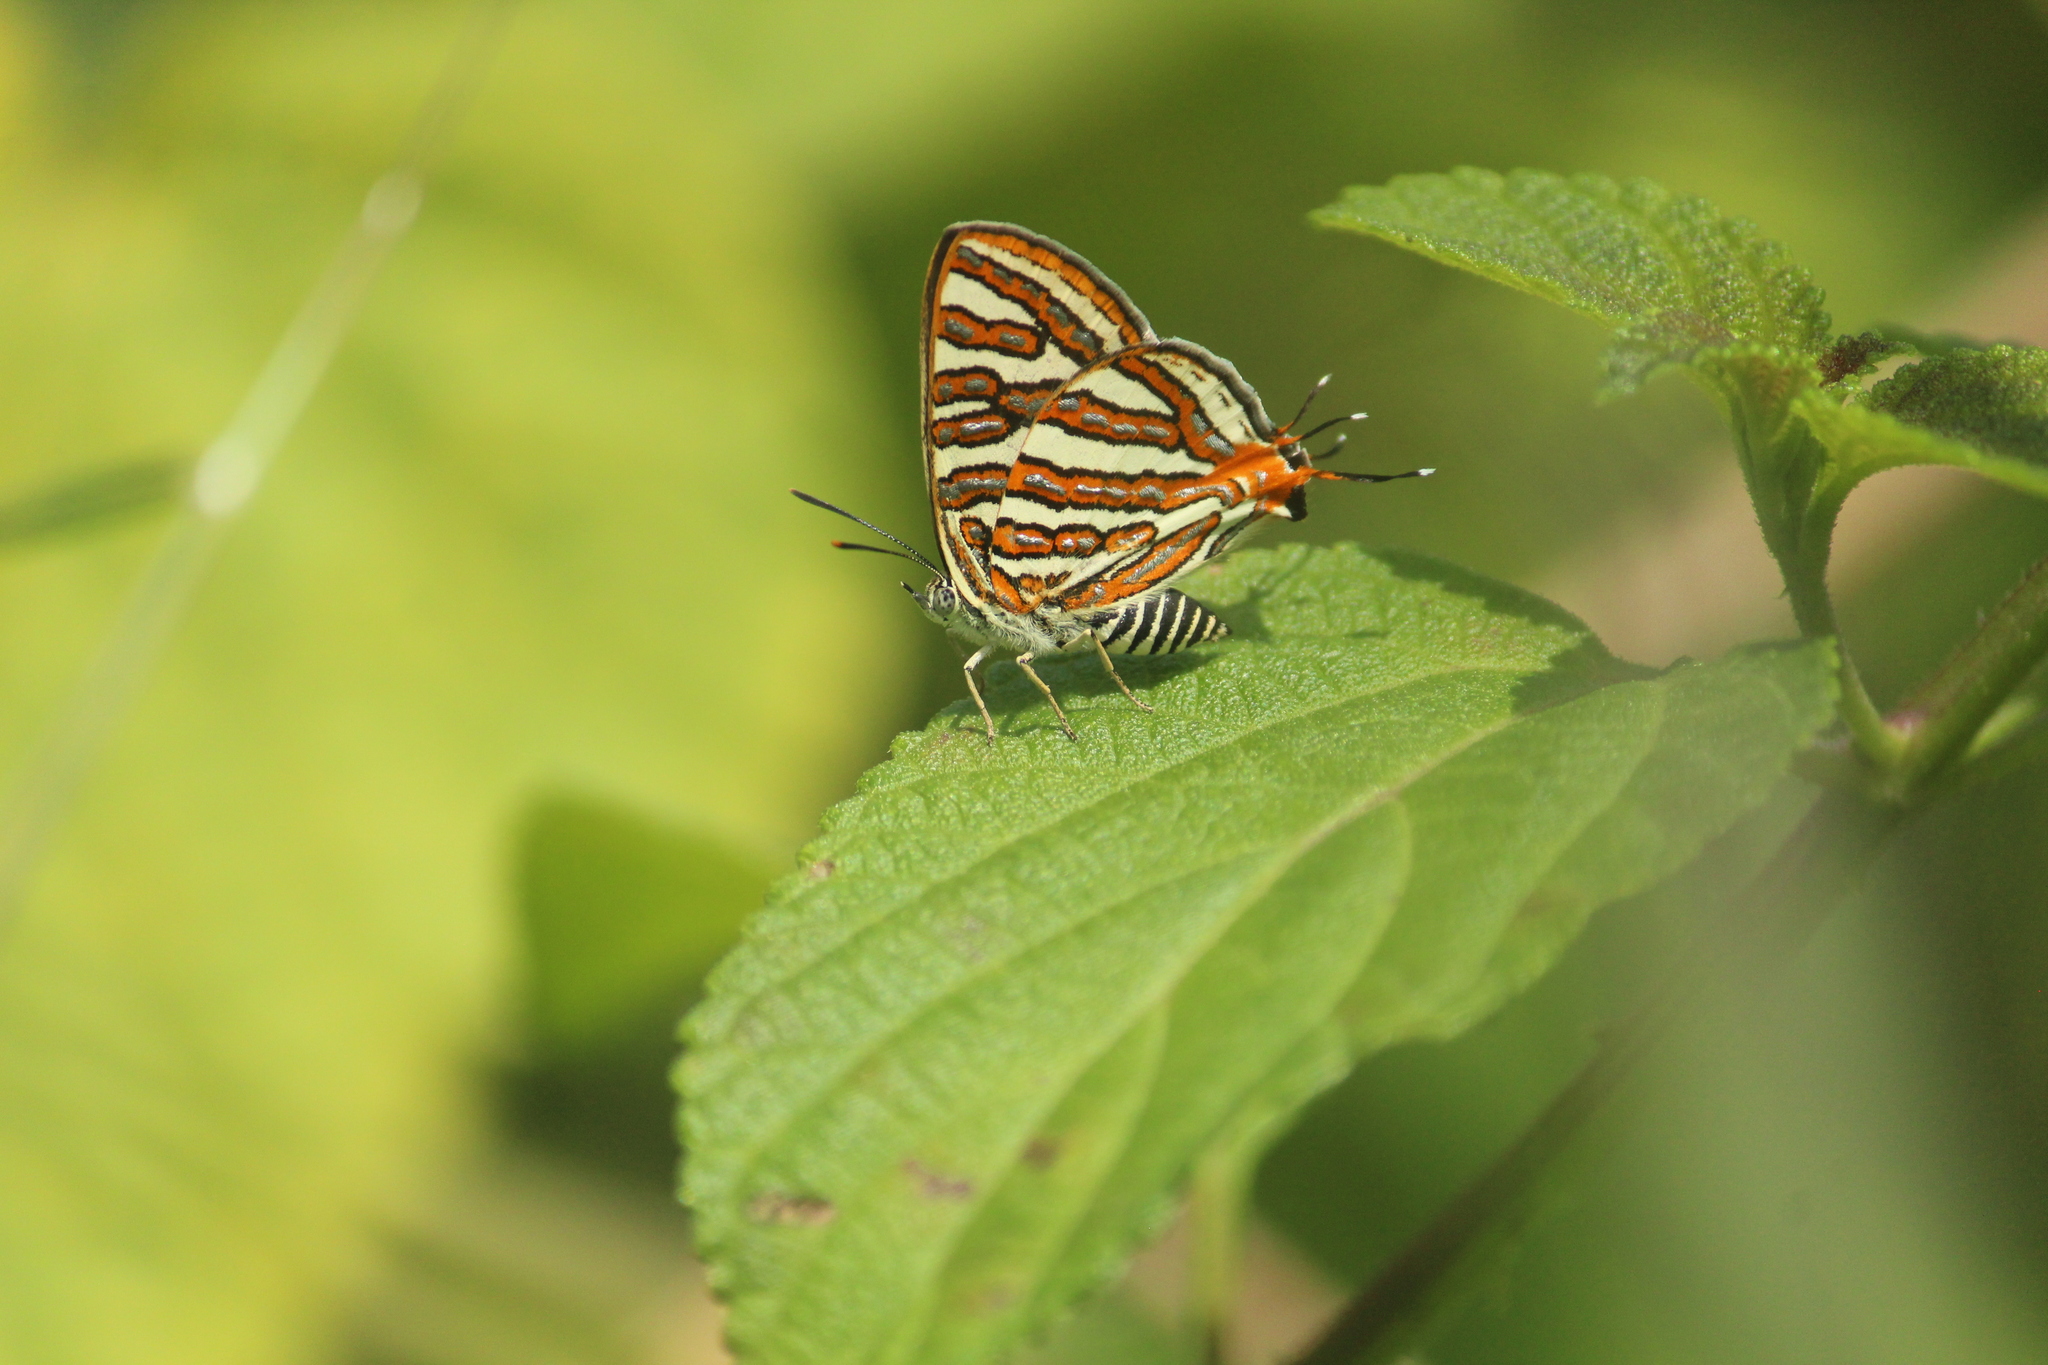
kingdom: Animalia
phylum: Arthropoda
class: Insecta
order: Lepidoptera
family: Lycaenidae
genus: Cigaritis
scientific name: Cigaritis vulcanus
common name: Common silverline
